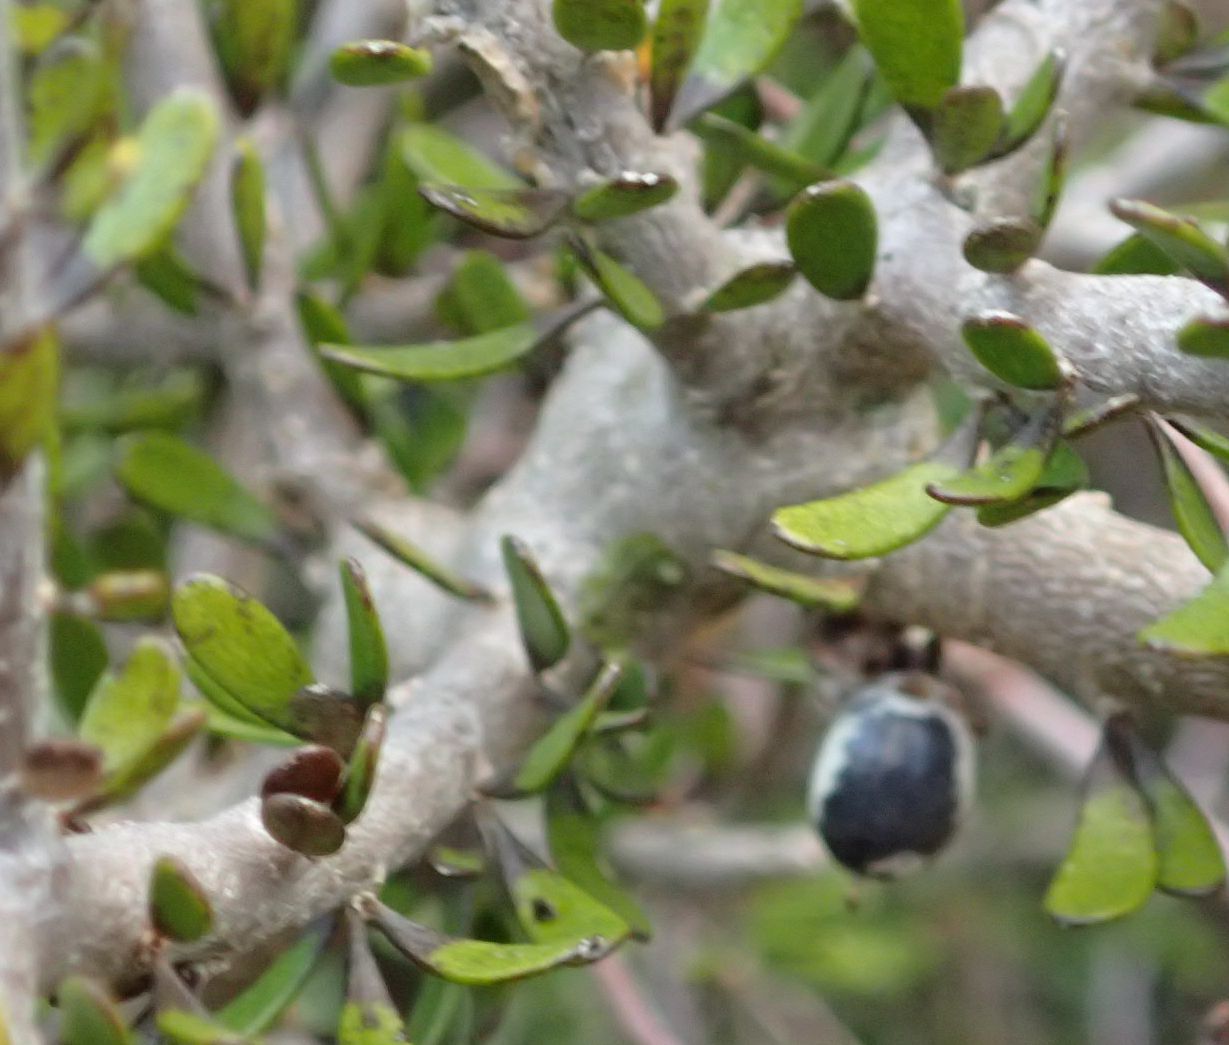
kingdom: Plantae
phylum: Tracheophyta
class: Magnoliopsida
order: Malpighiales
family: Violaceae
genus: Melicytus
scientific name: Melicytus alpinus
